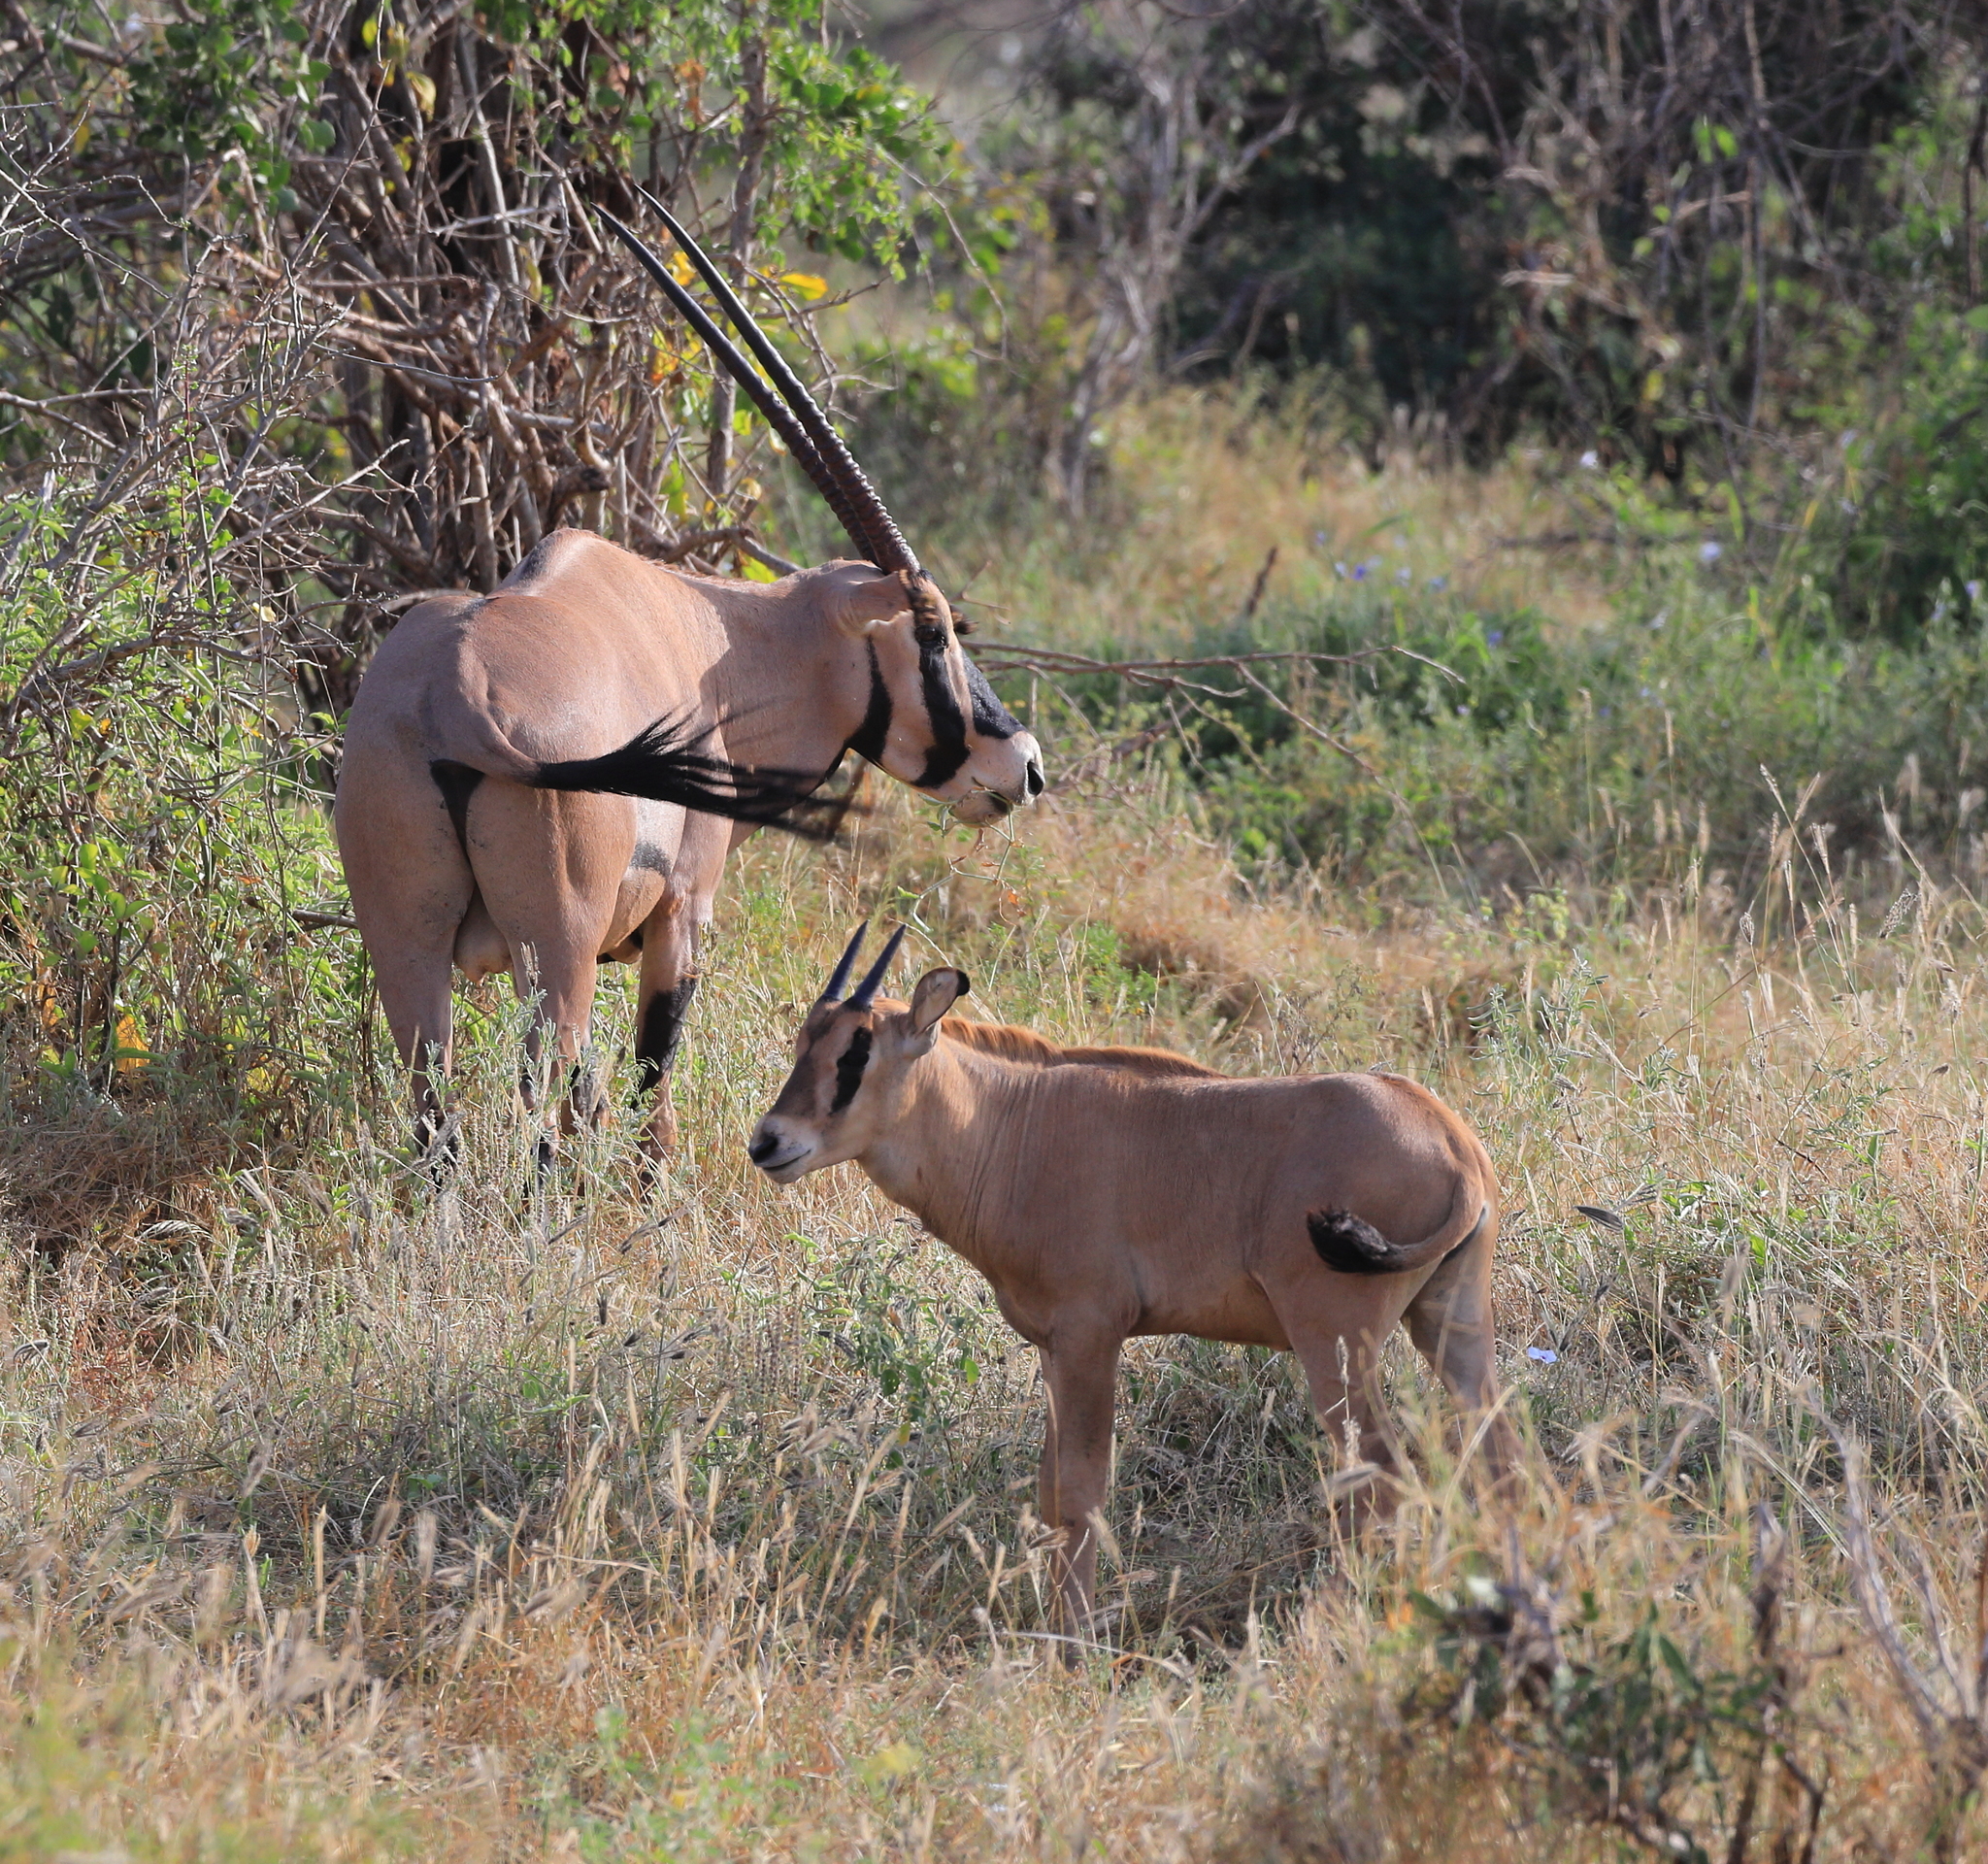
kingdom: Animalia
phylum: Chordata
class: Mammalia
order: Artiodactyla
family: Bovidae
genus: Oryx
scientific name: Oryx beisa
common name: Beisa
